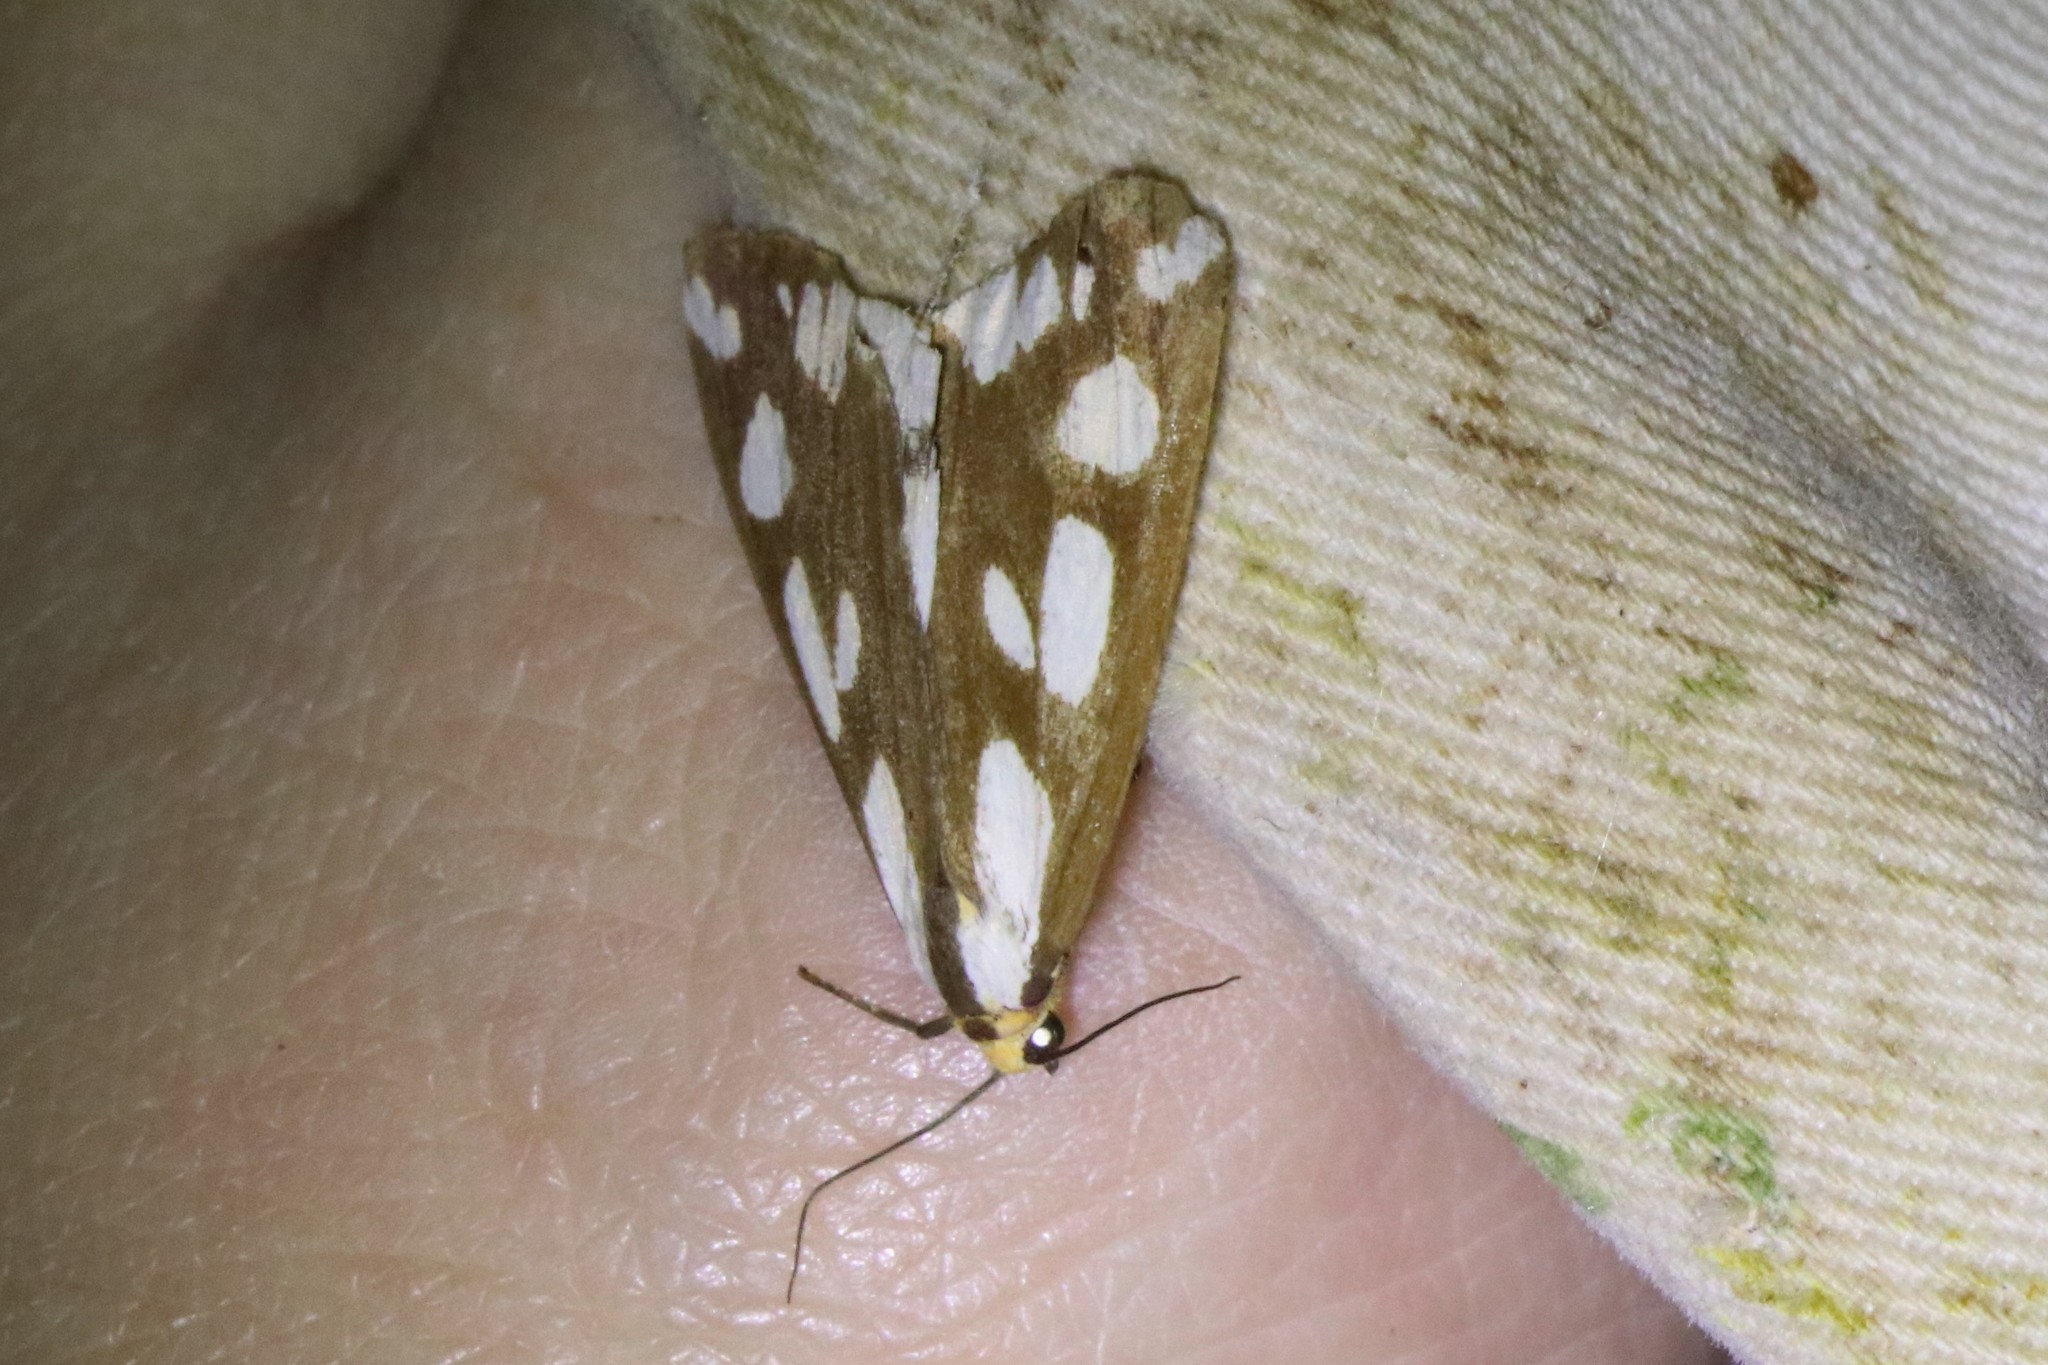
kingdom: Animalia
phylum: Arthropoda
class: Insecta
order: Lepidoptera
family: Erebidae
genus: Haploa
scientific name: Haploa confusa
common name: Confused haploa moth
